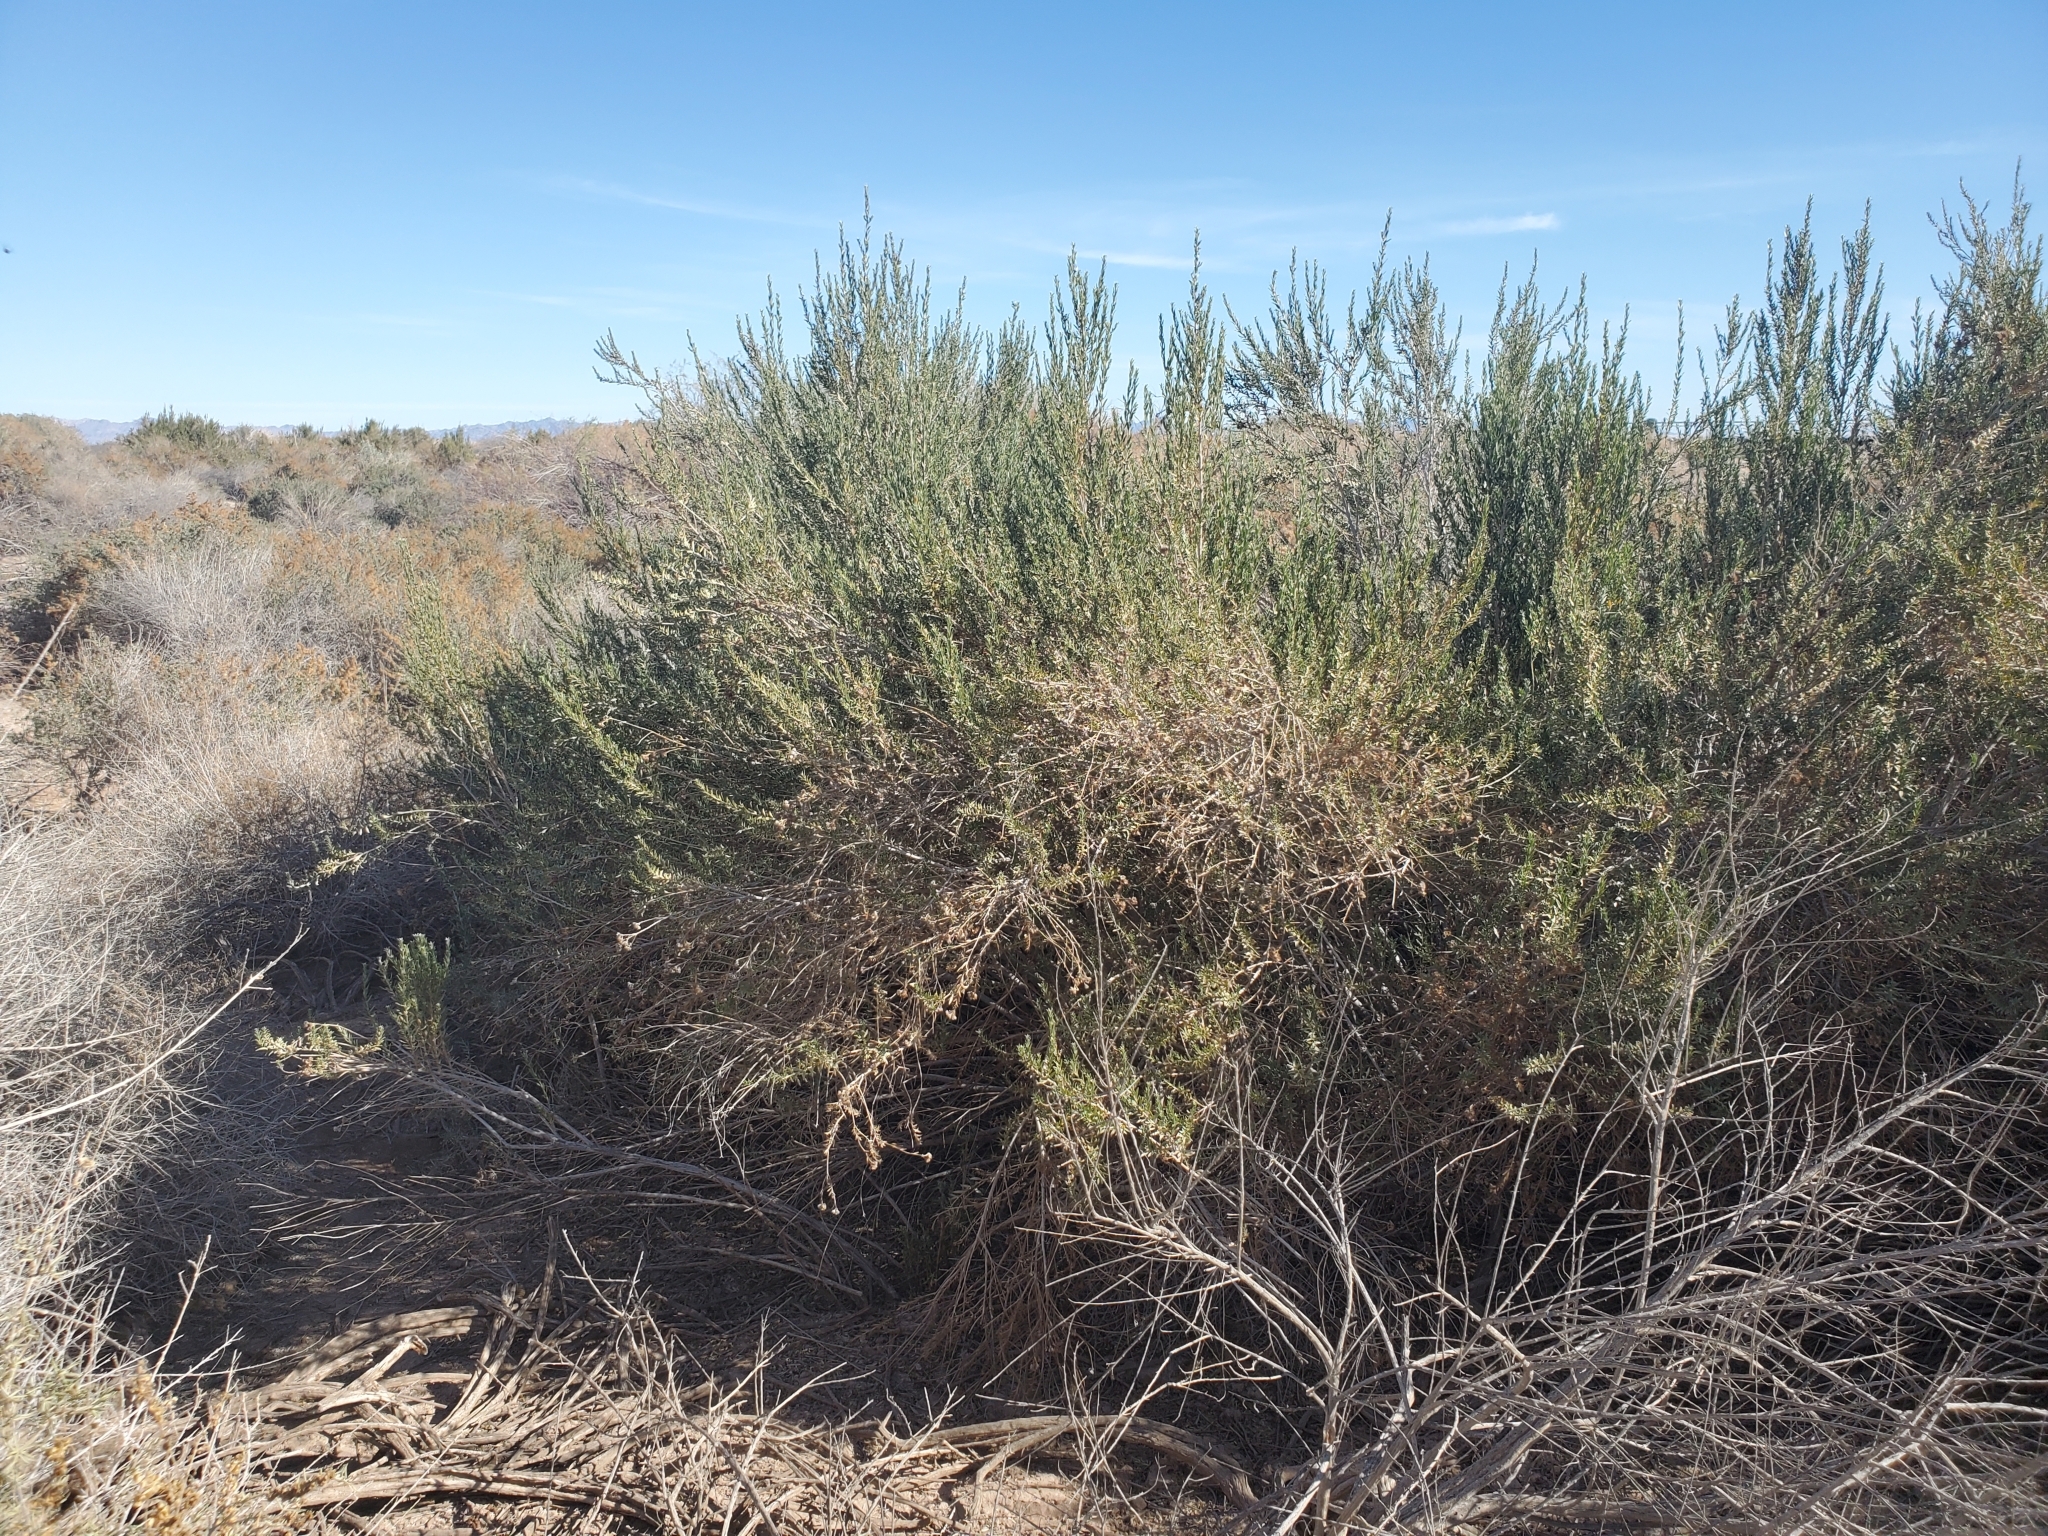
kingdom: Plantae
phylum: Tracheophyta
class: Magnoliopsida
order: Asterales
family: Asteraceae
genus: Pluchea
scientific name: Pluchea sericea
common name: Arrow-weed
